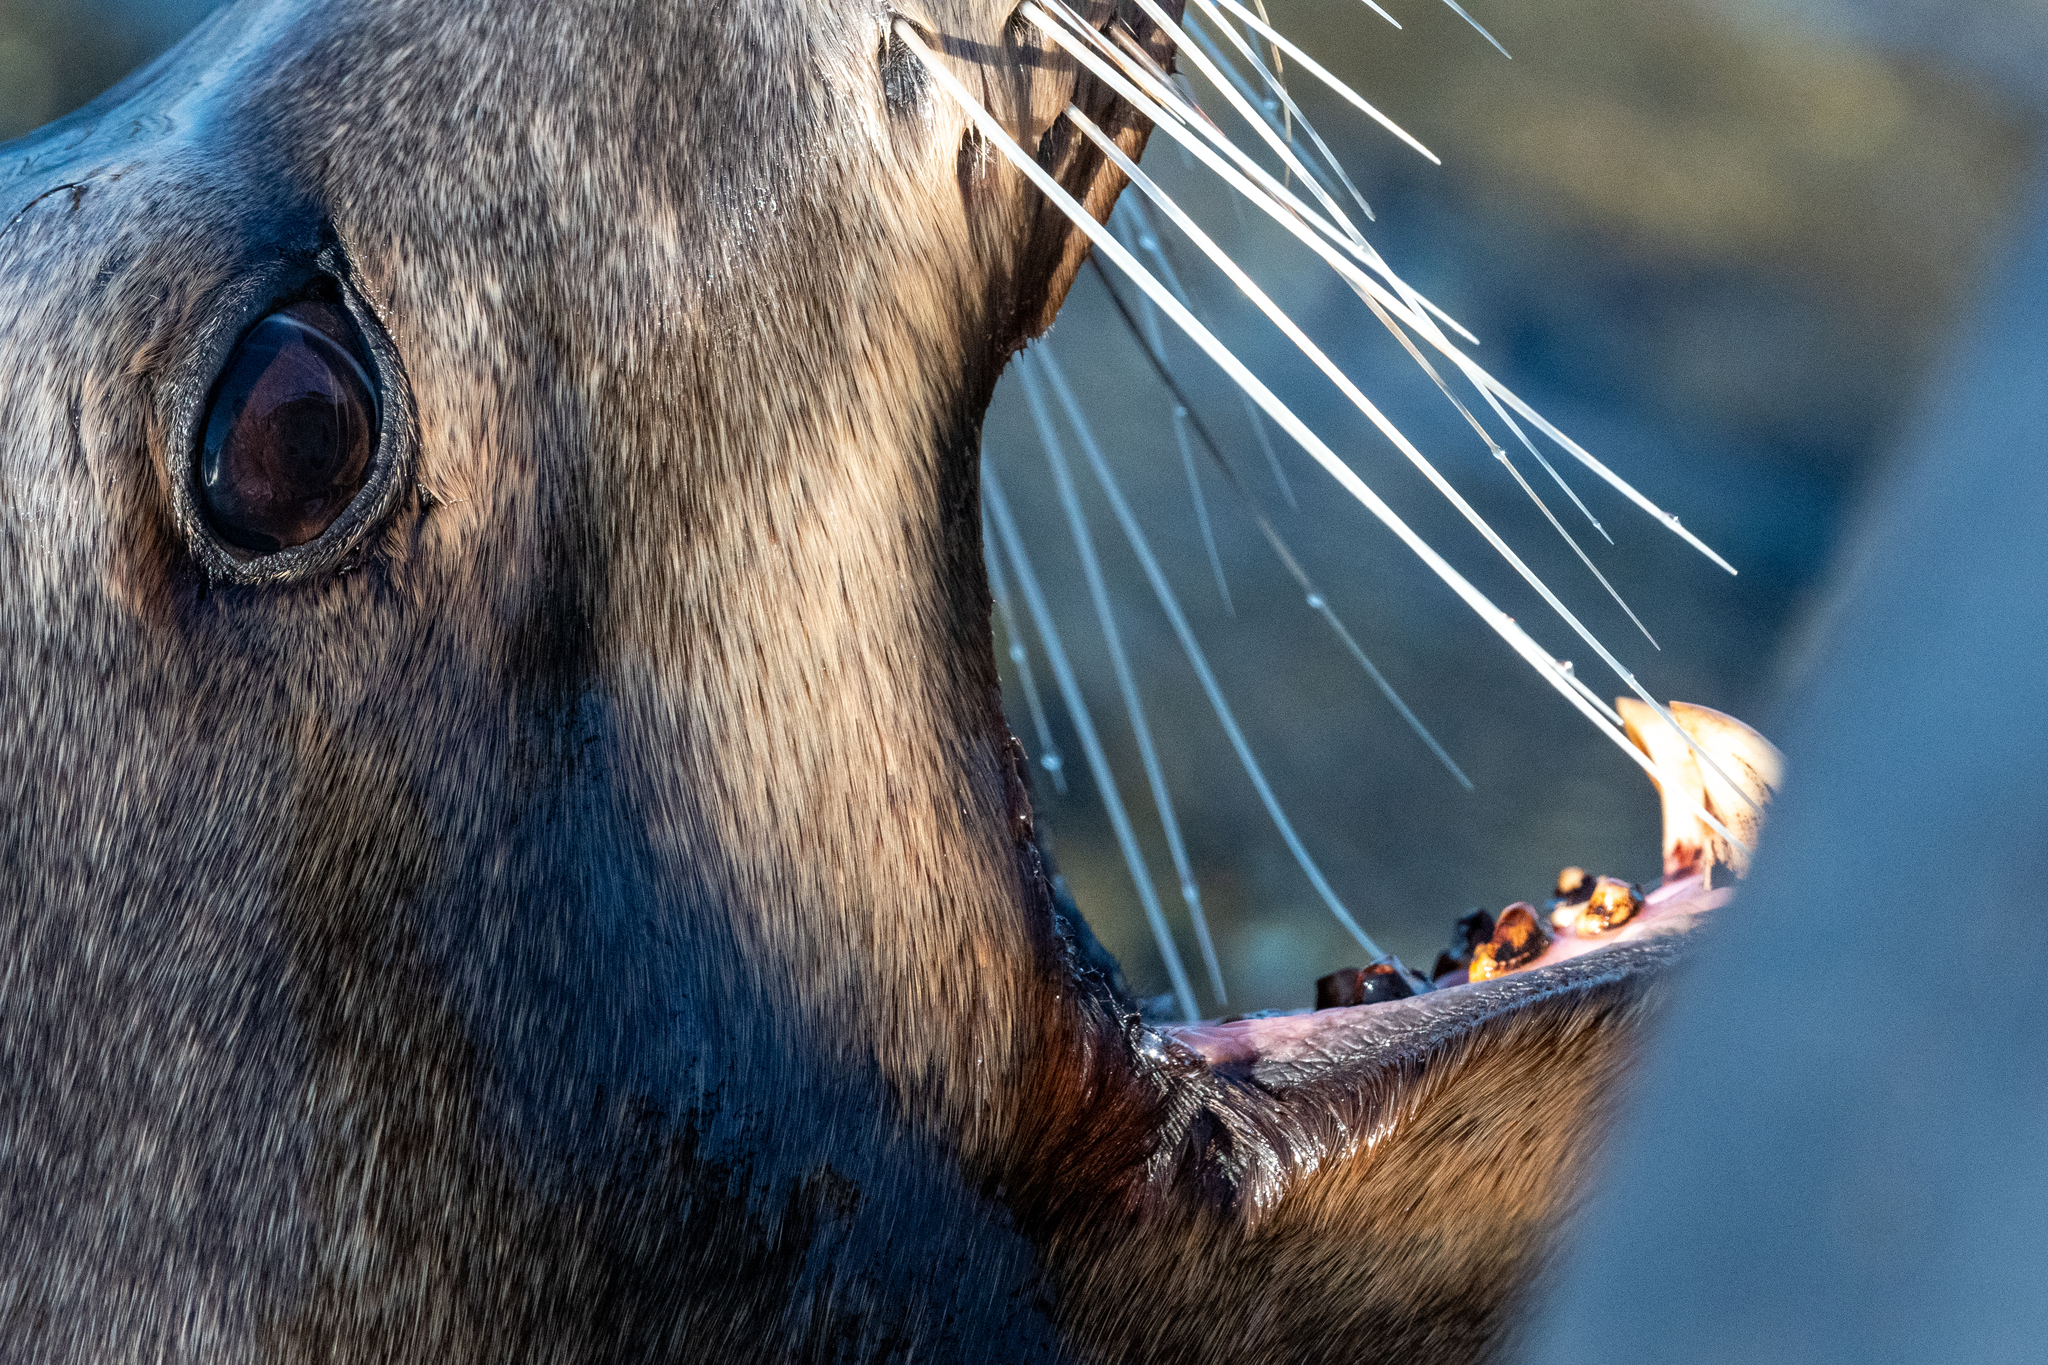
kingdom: Animalia
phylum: Chordata
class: Mammalia
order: Carnivora
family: Otariidae
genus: Zalophus
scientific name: Zalophus californianus
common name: California sea lion
